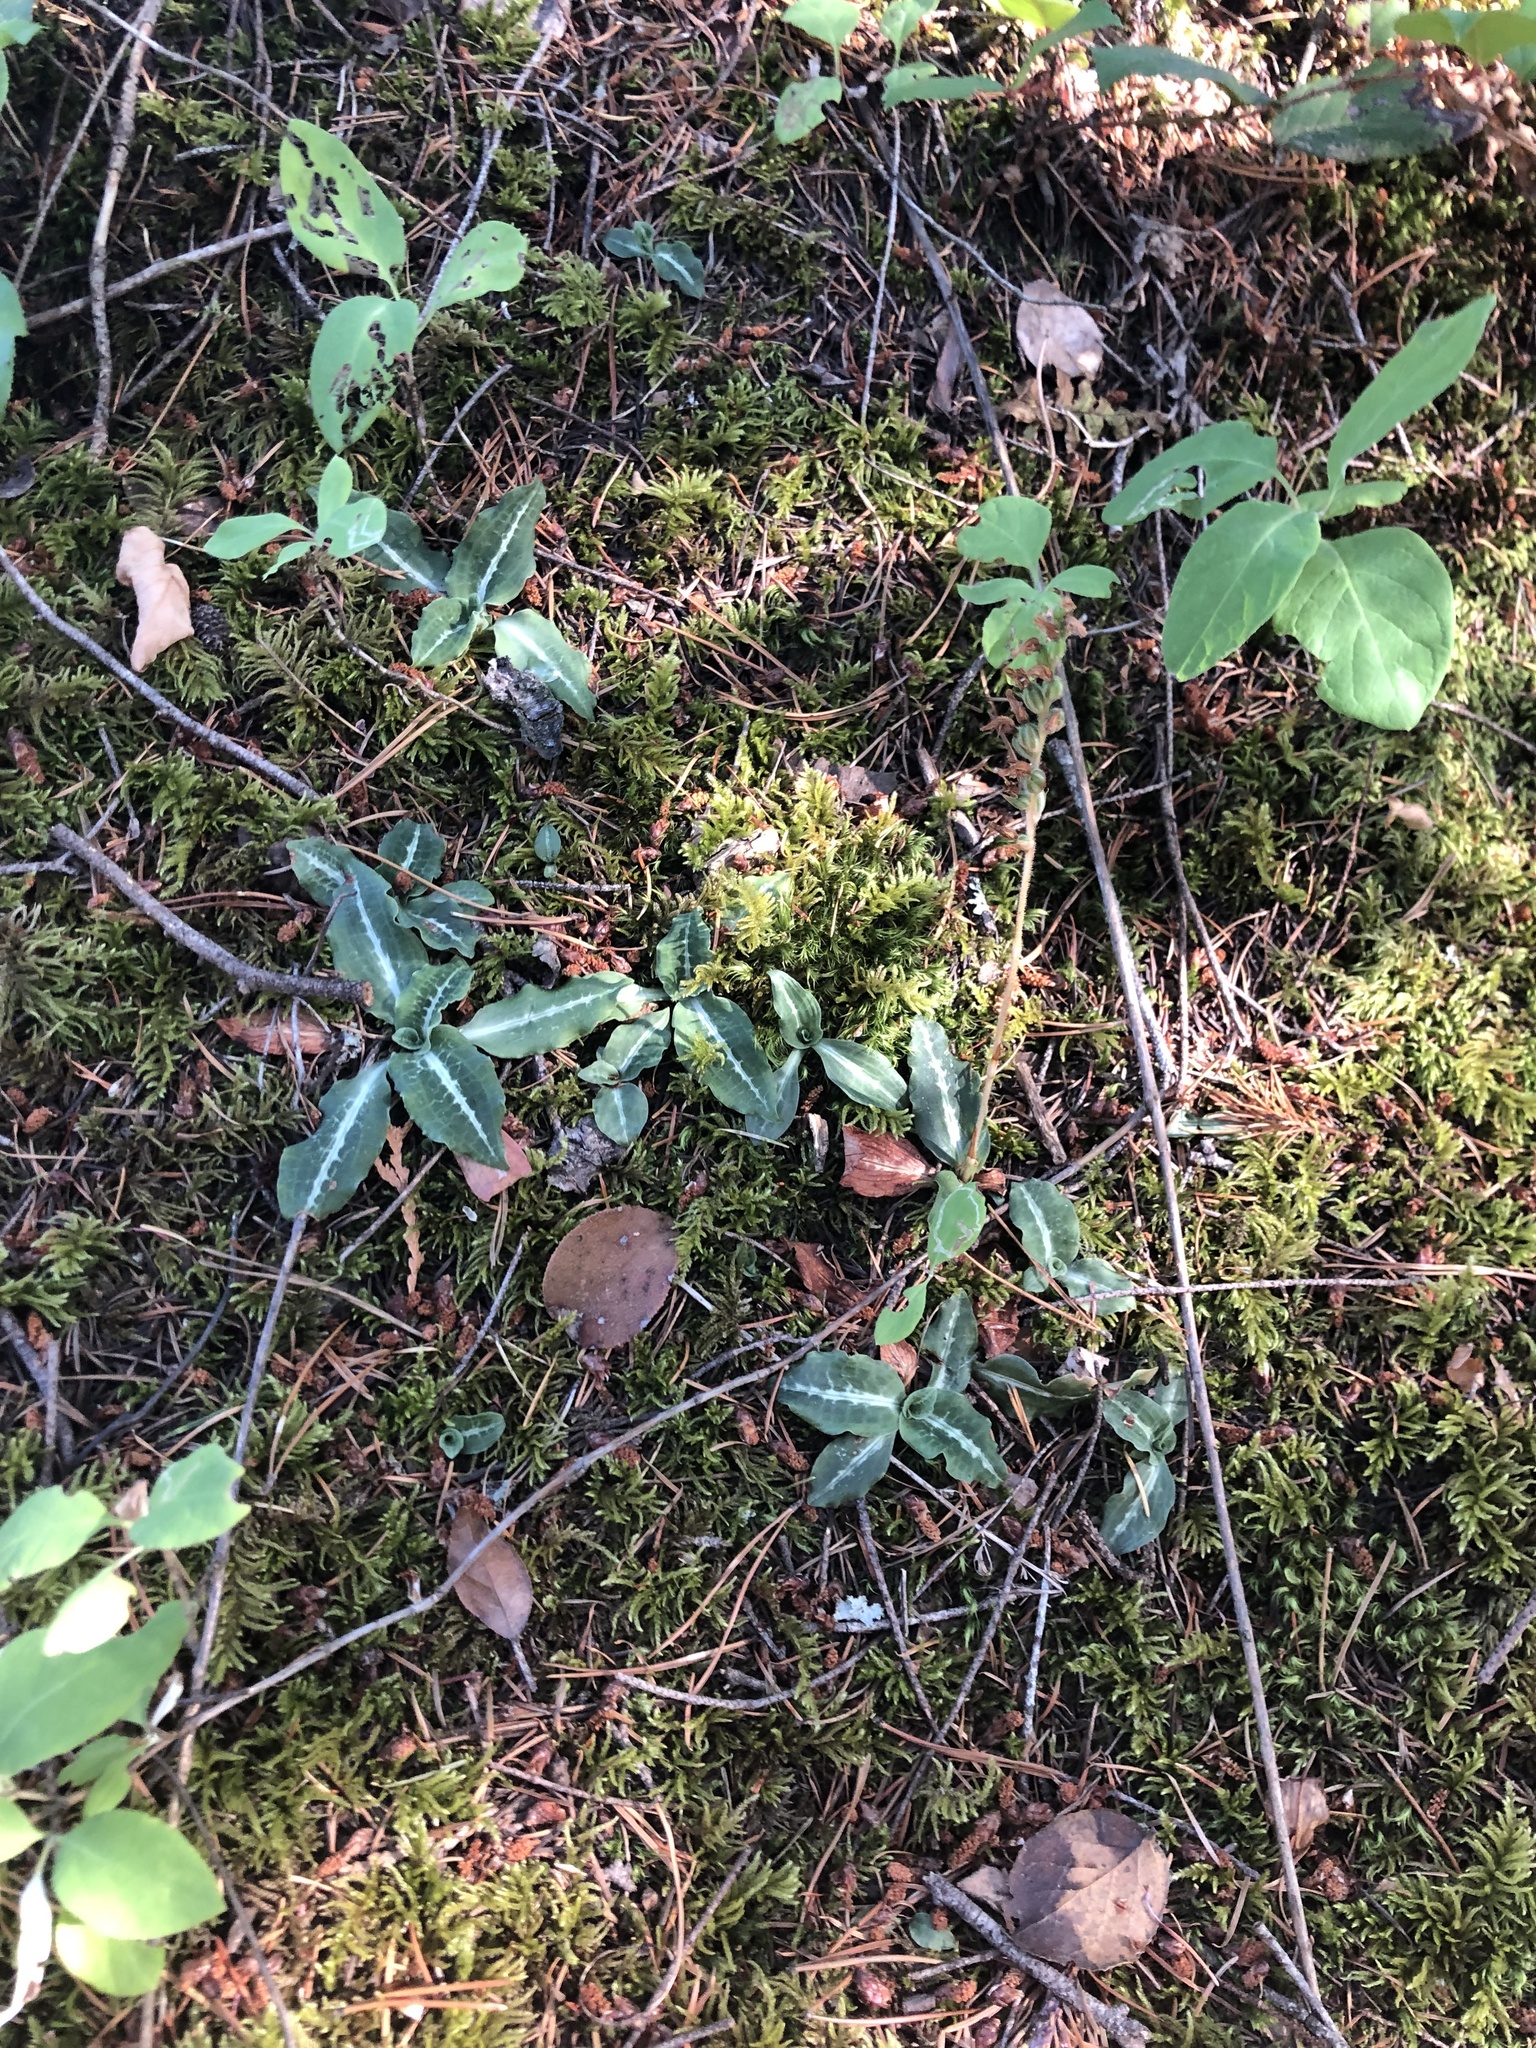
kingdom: Plantae
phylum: Tracheophyta
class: Liliopsida
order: Asparagales
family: Orchidaceae
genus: Goodyera
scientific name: Goodyera oblongifolia
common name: Giant rattlesnake-plantain
